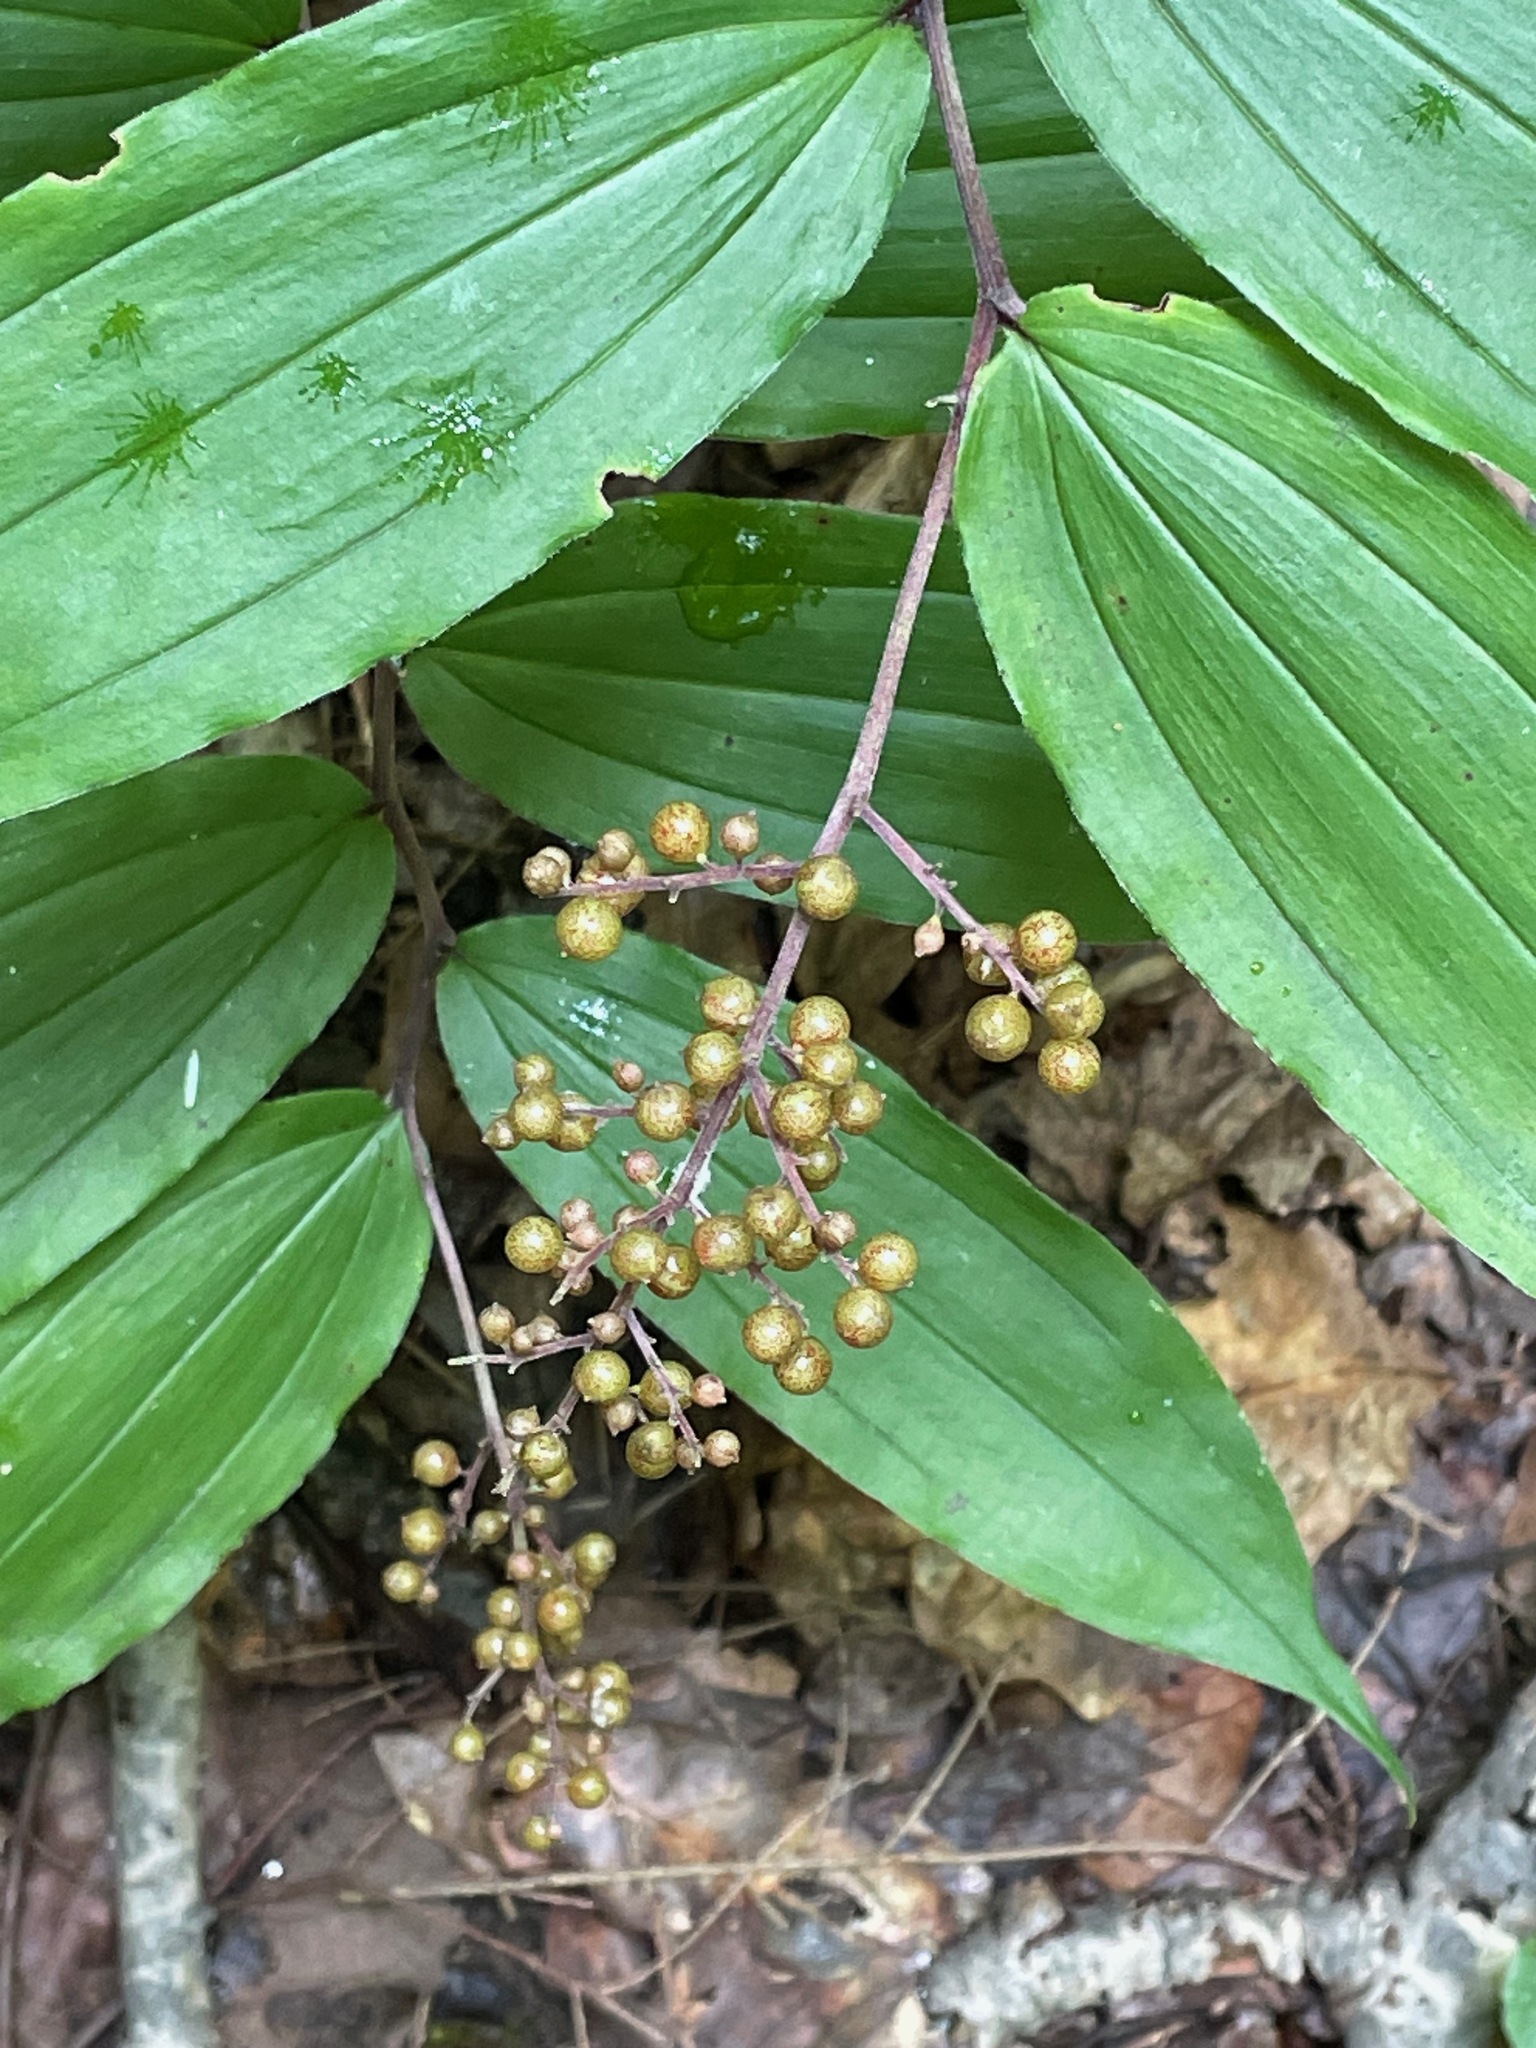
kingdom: Plantae
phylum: Tracheophyta
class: Liliopsida
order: Asparagales
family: Asparagaceae
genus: Maianthemum
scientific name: Maianthemum racemosum
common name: False spikenard
